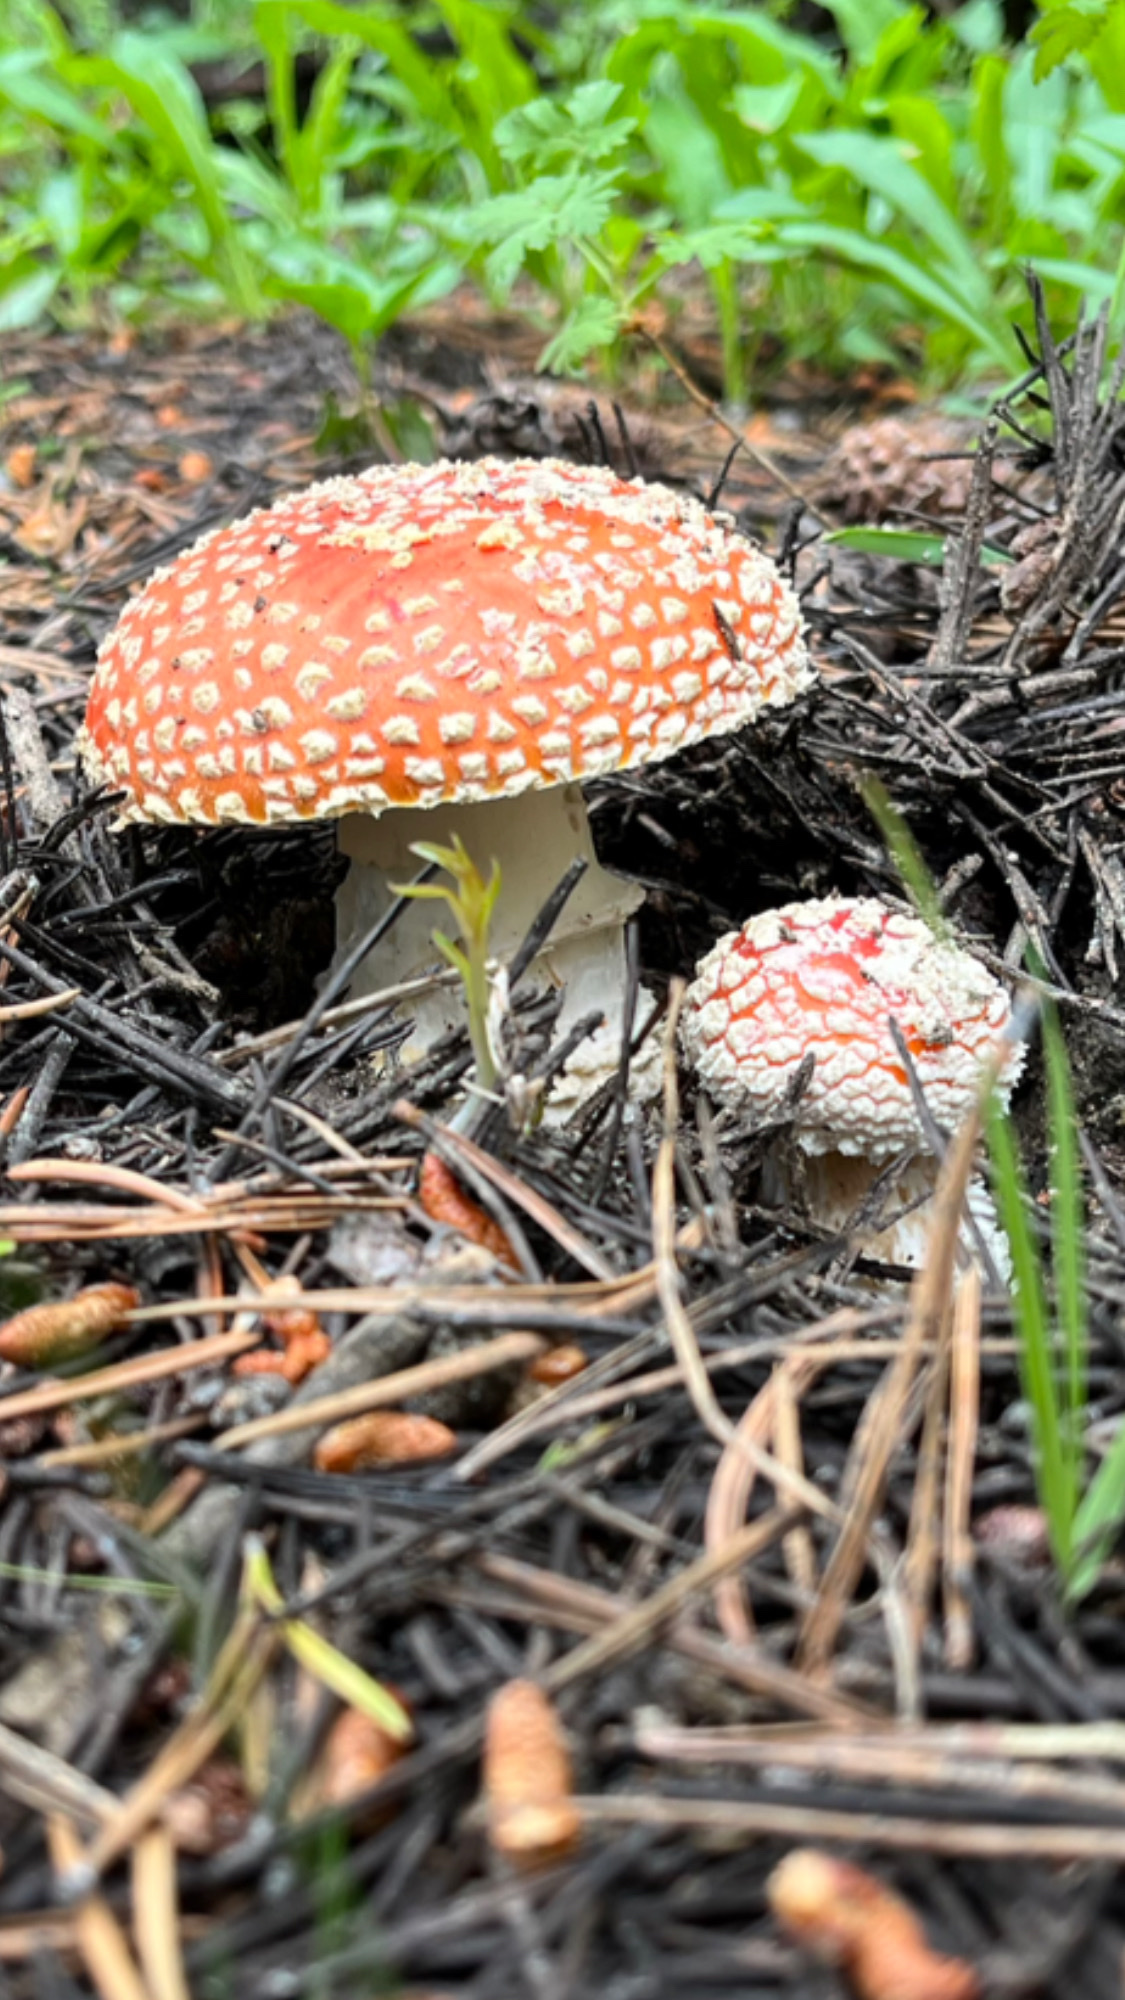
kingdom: Fungi
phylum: Basidiomycota
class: Agaricomycetes
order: Agaricales
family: Amanitaceae
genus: Amanita
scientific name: Amanita muscaria
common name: Fly agaric
